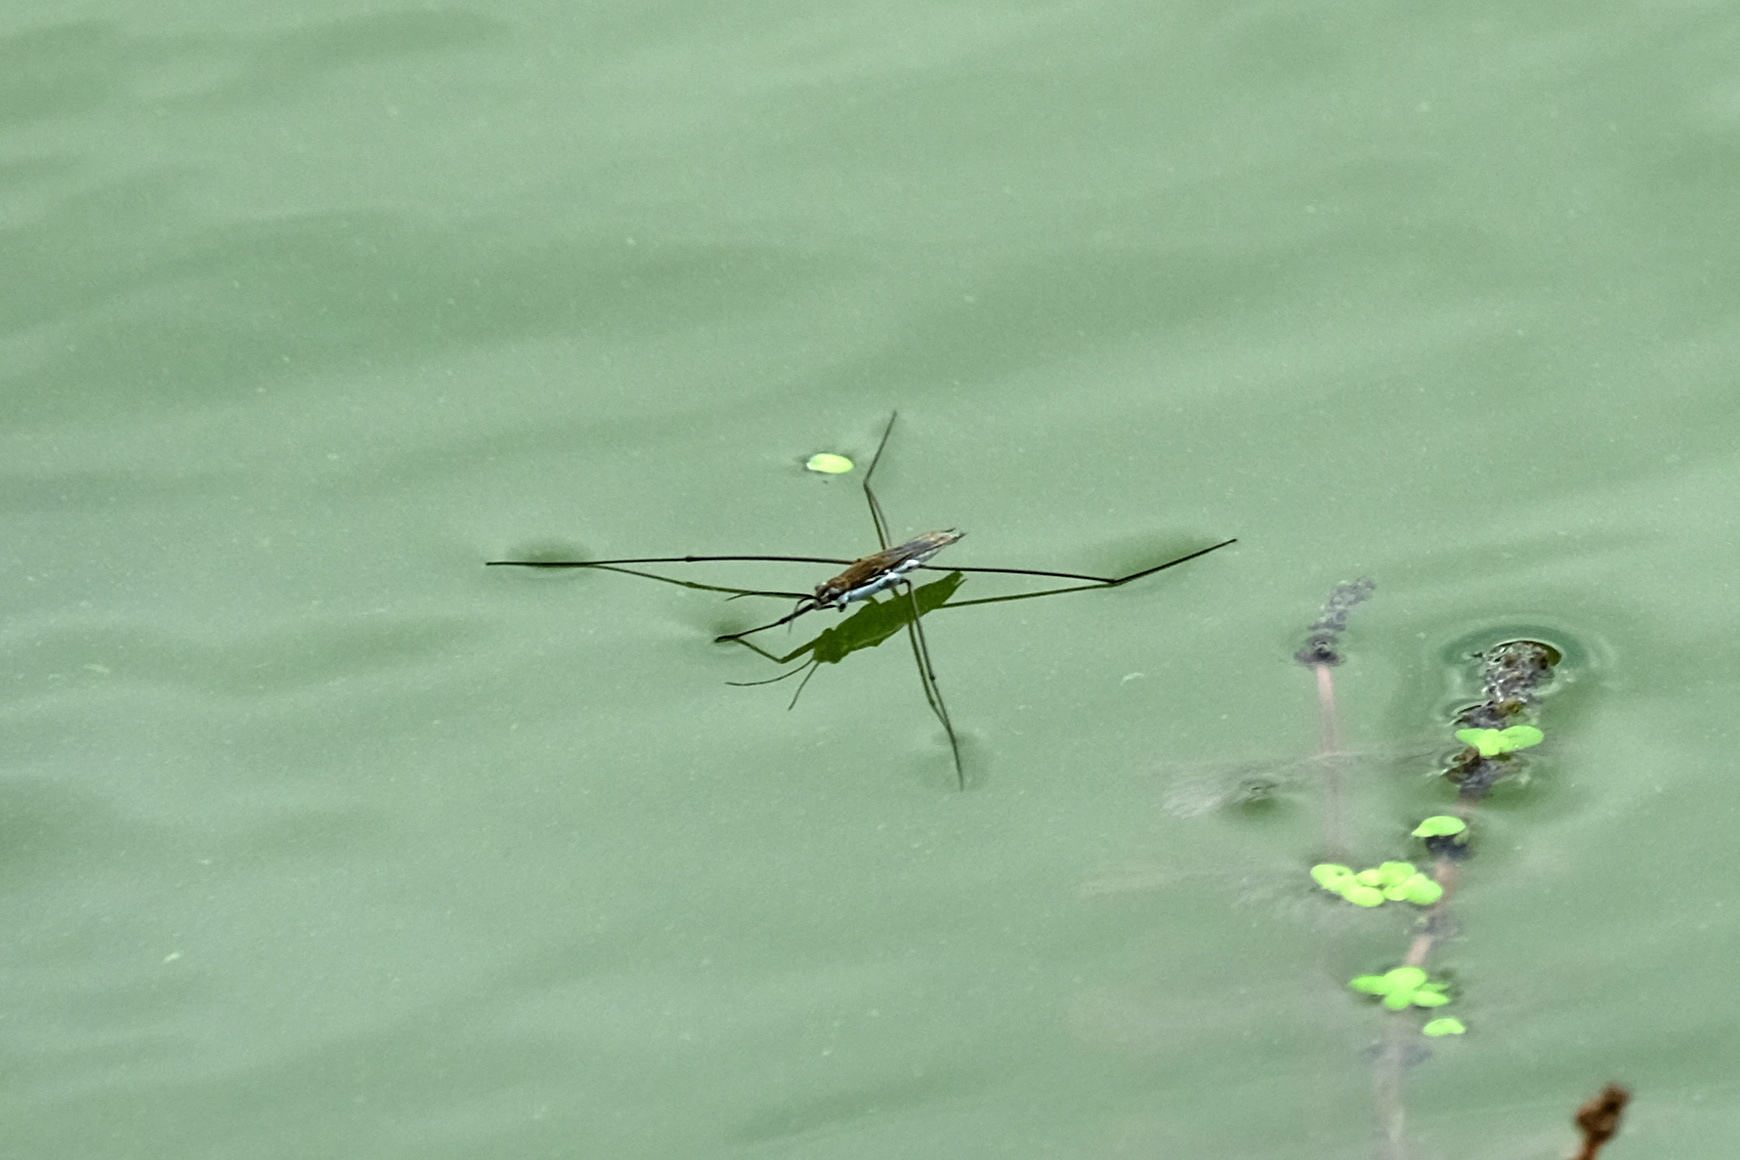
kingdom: Animalia
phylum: Arthropoda
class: Insecta
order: Hemiptera
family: Gerridae
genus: Aquarius
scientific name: Aquarius paludum
